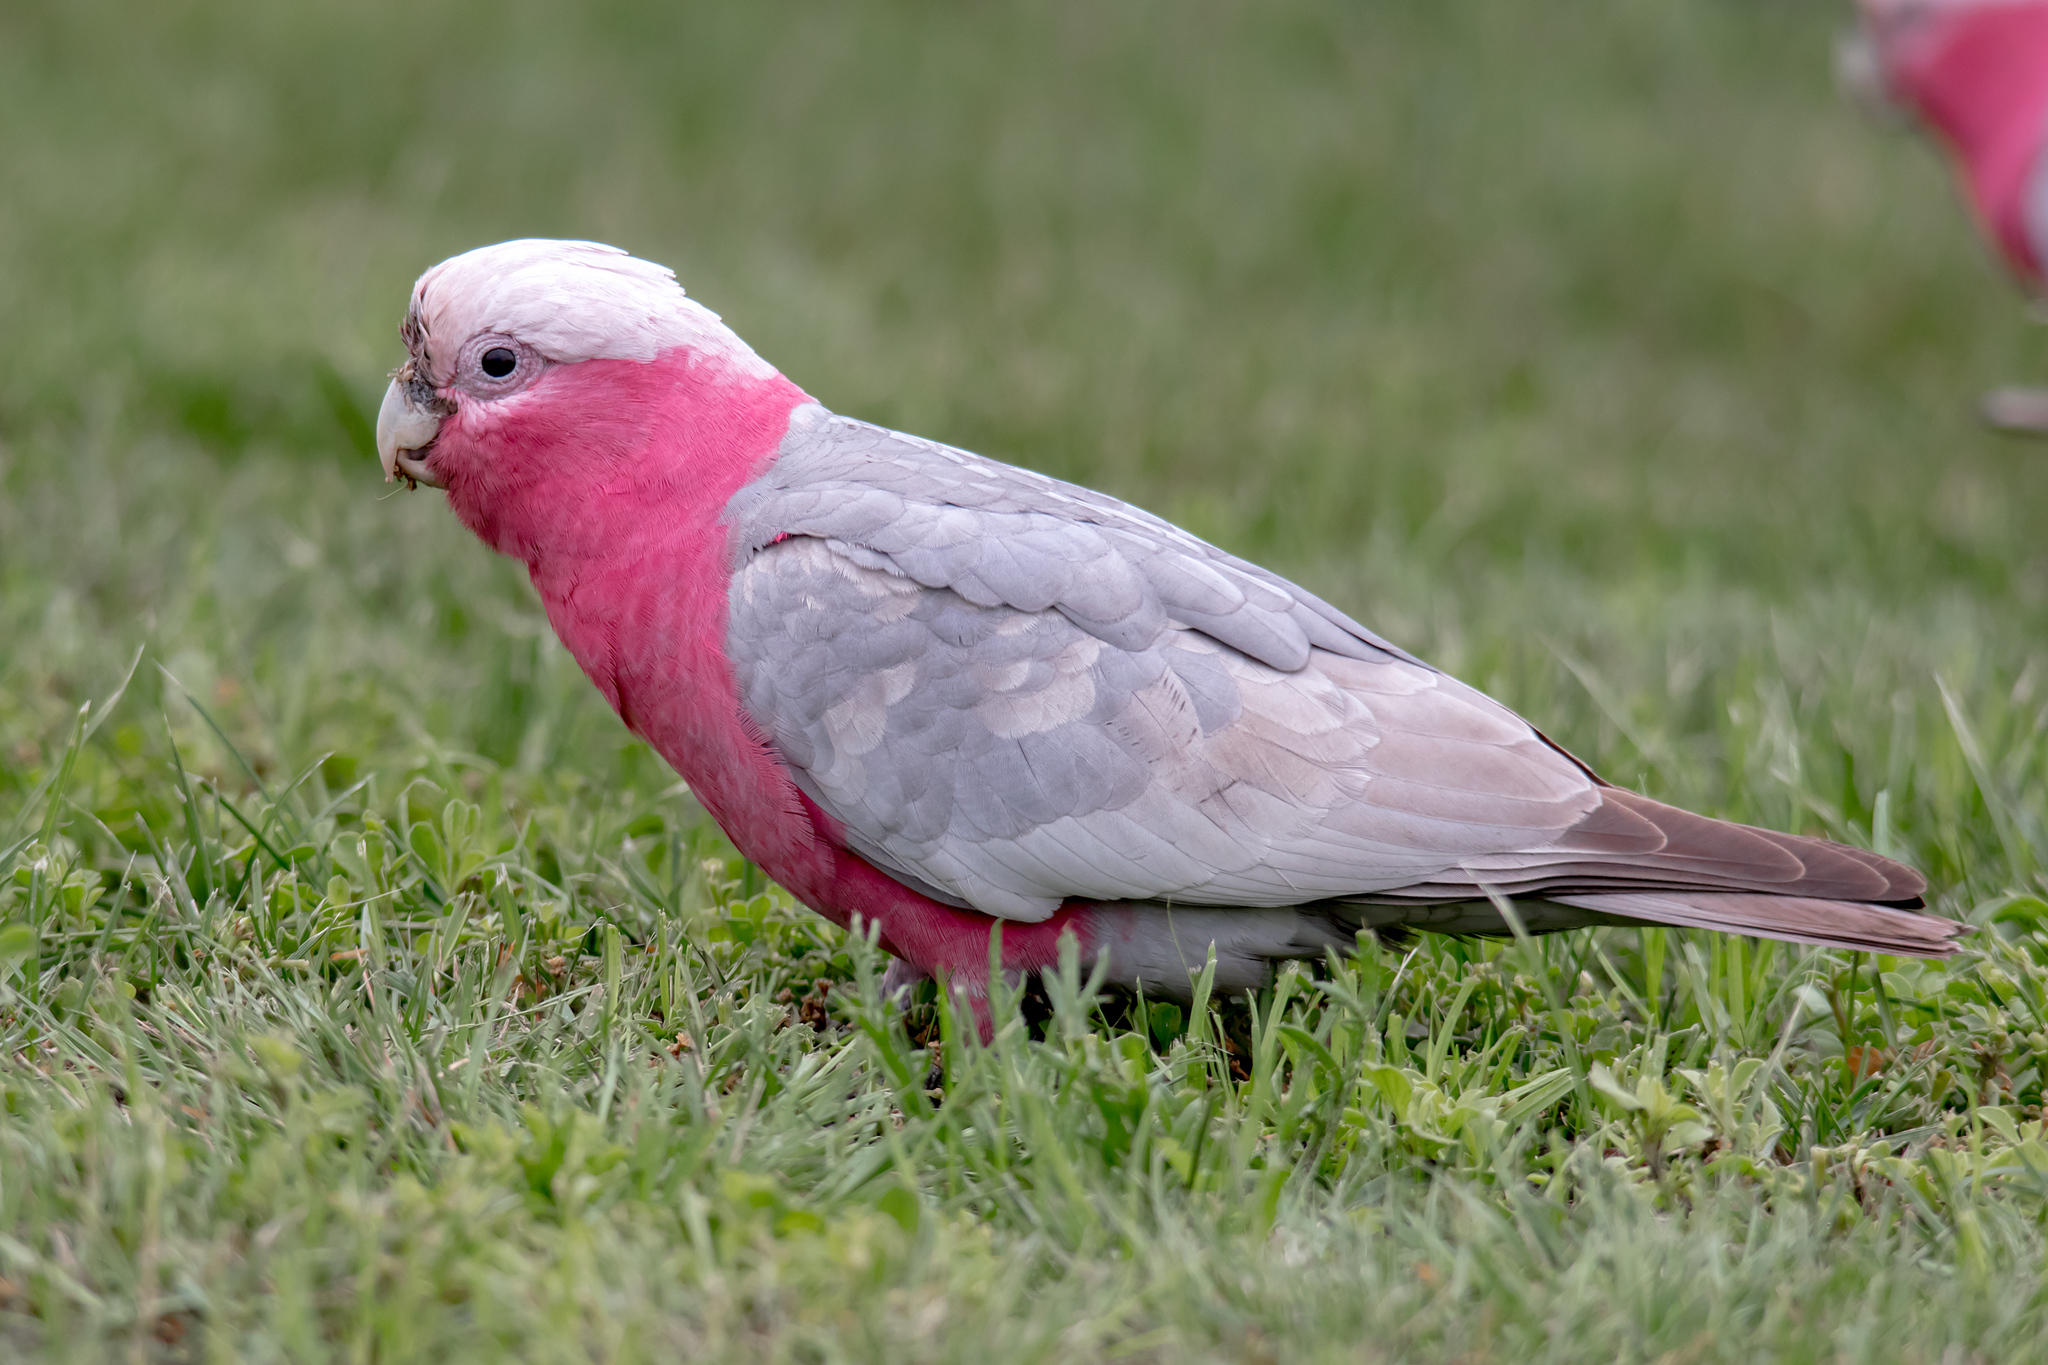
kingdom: Animalia
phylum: Chordata
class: Aves
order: Psittaciformes
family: Psittacidae
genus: Eolophus
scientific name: Eolophus roseicapilla
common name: Galah
